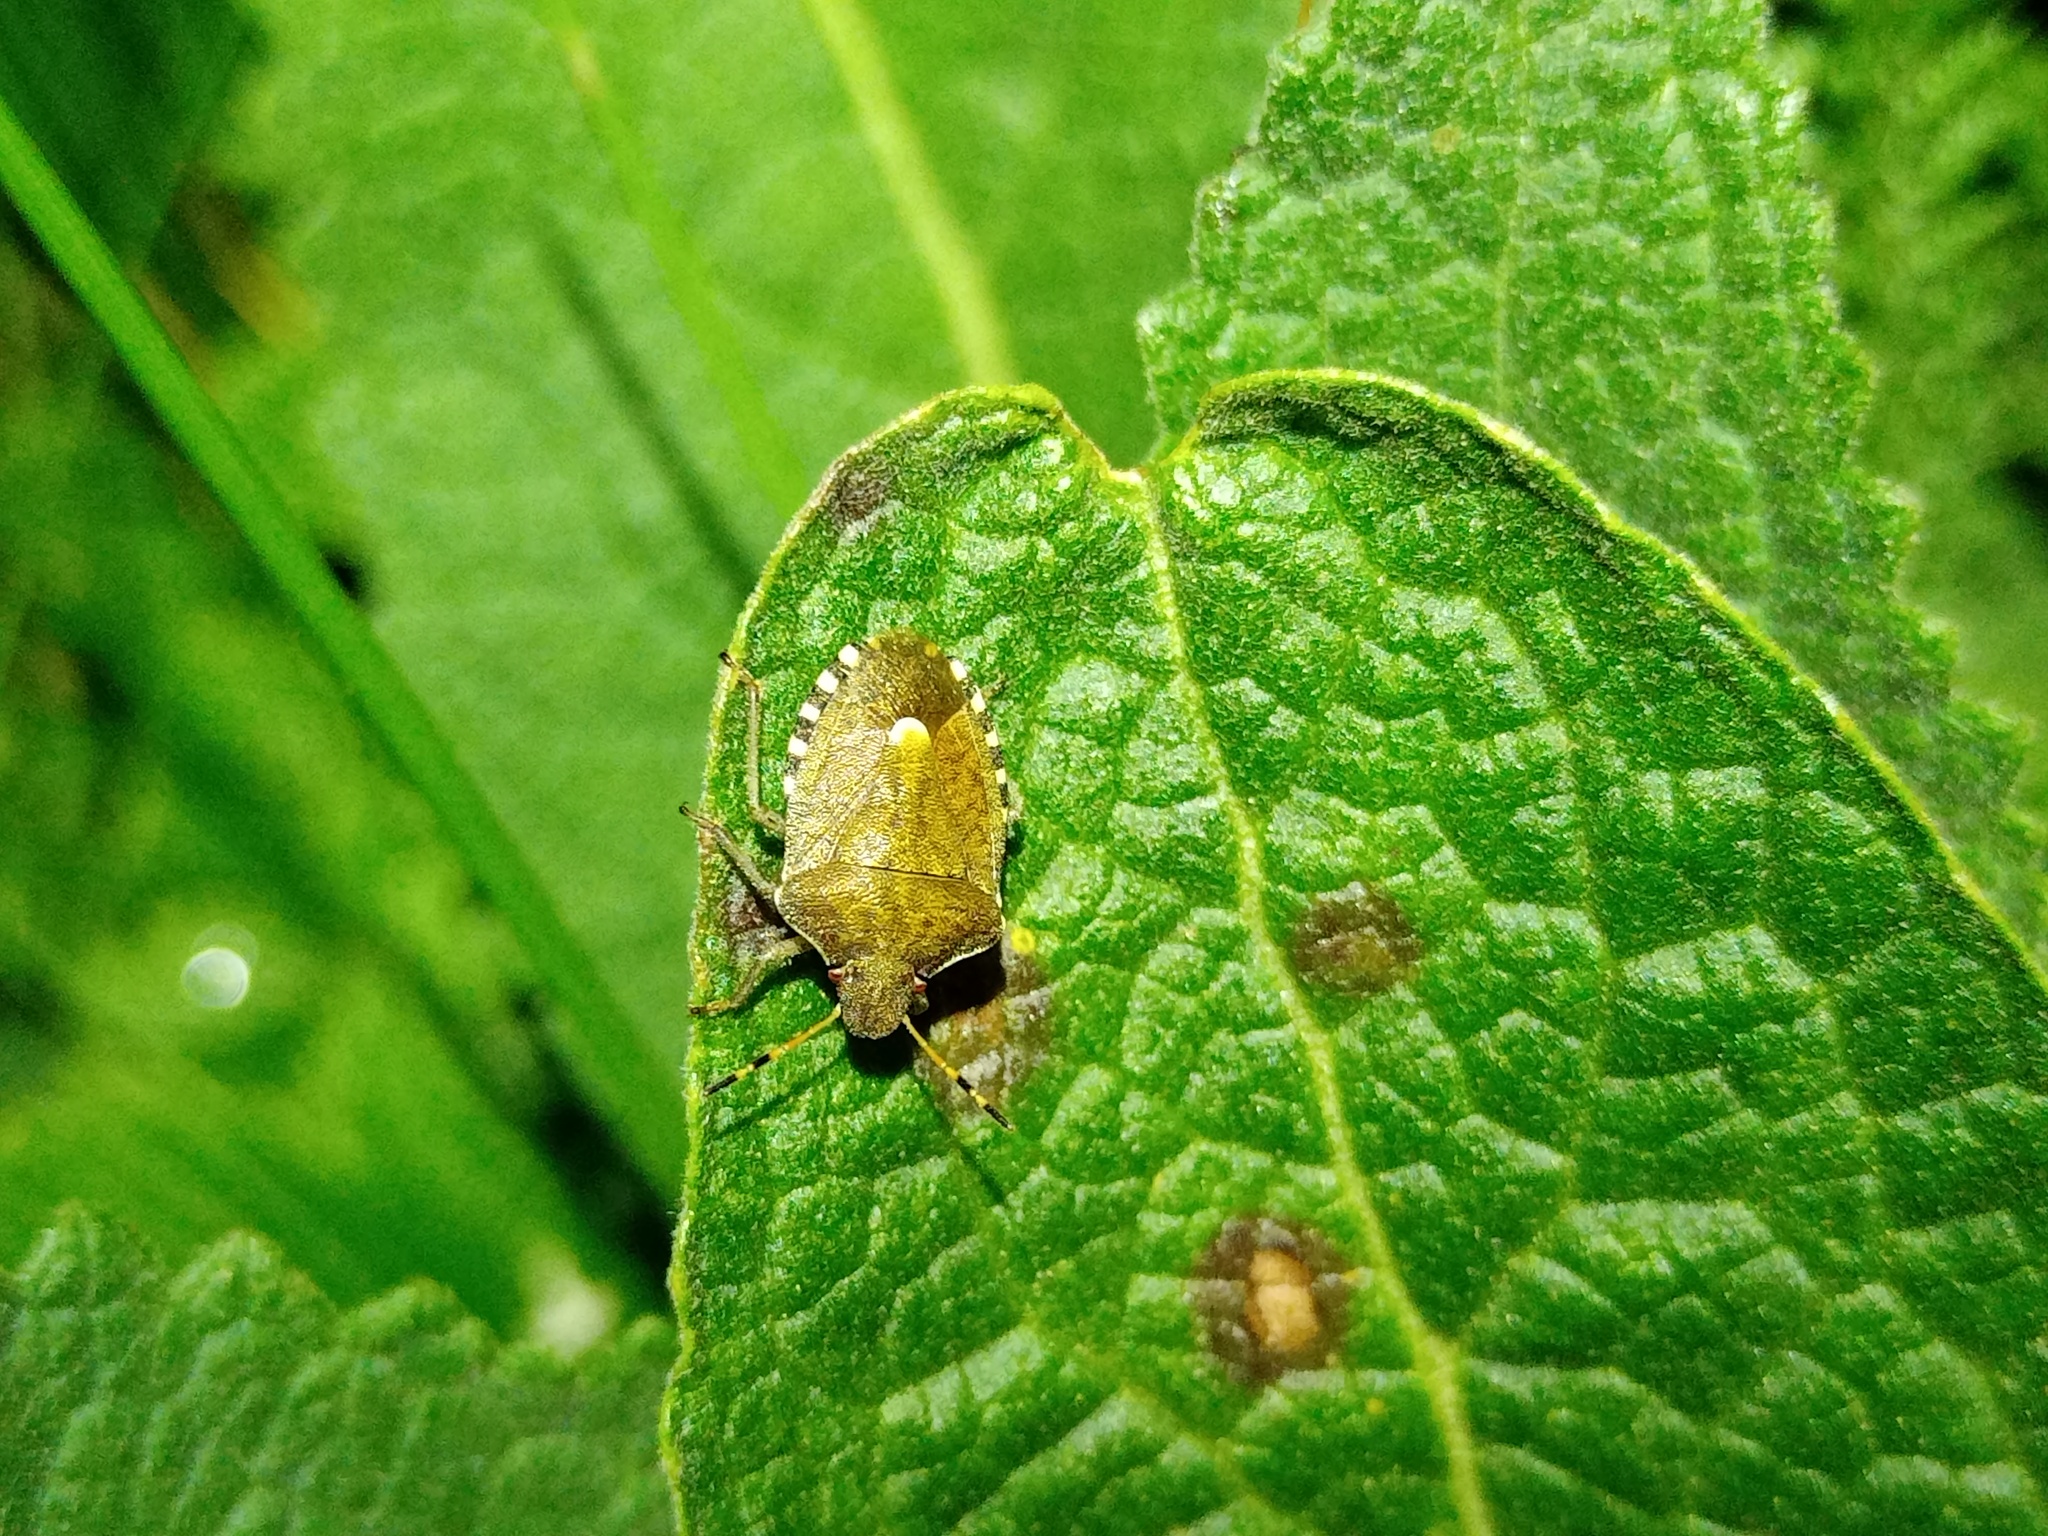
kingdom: Animalia
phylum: Arthropoda
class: Insecta
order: Hemiptera
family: Pentatomidae
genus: Holcostethus
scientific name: Holcostethus strictus
